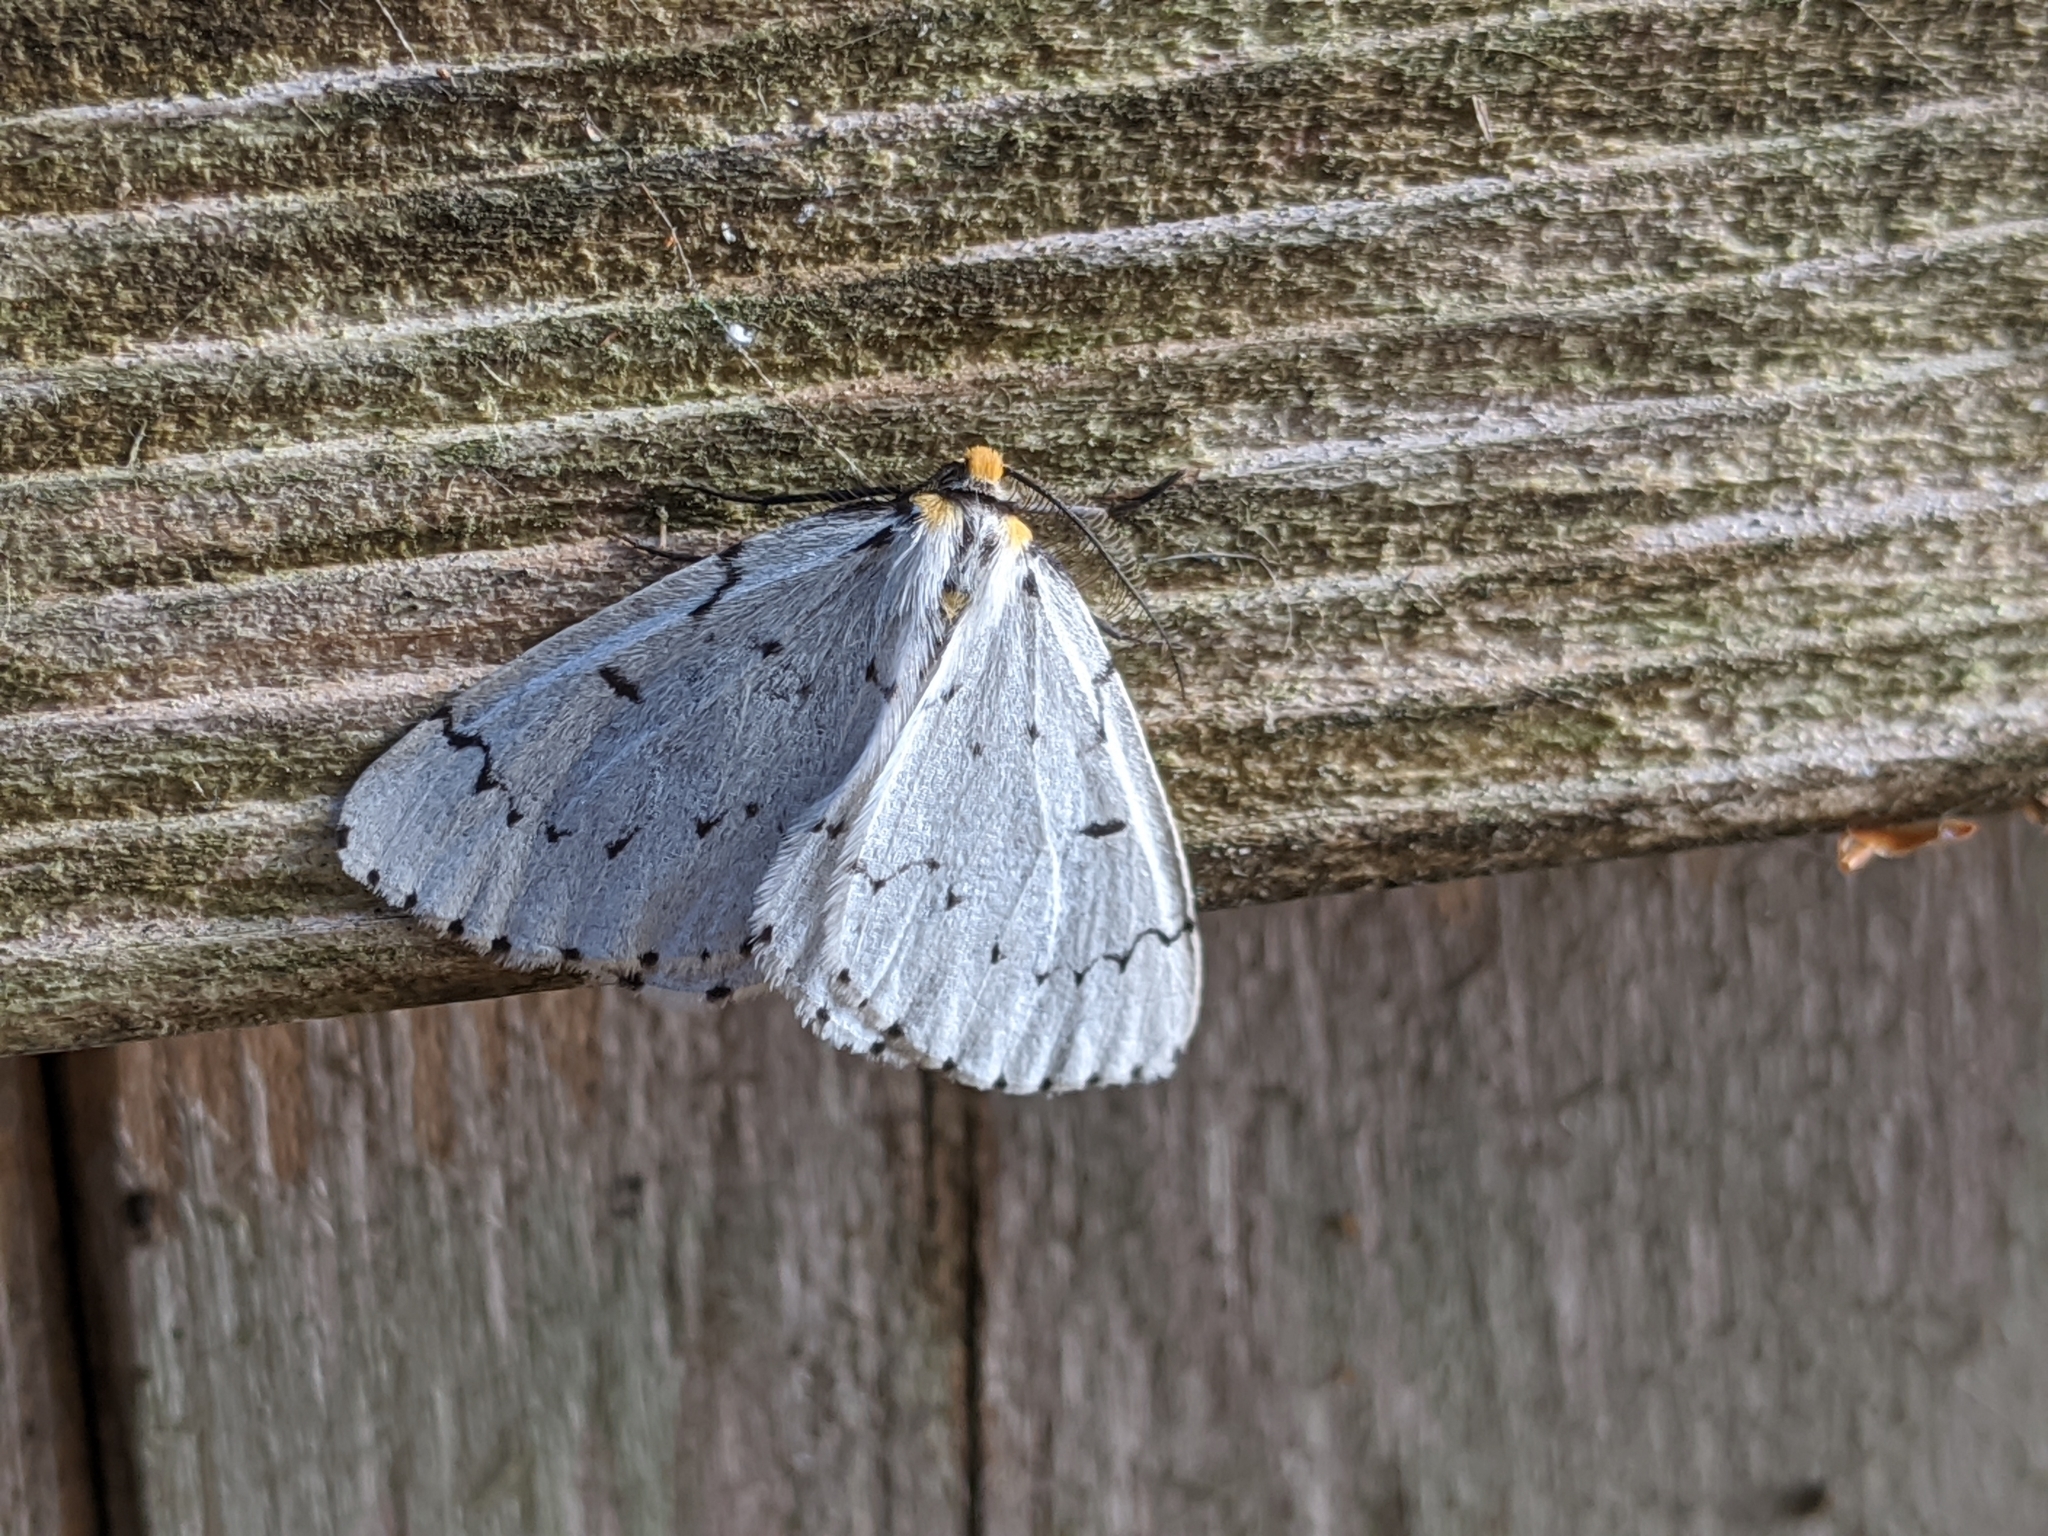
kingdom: Animalia
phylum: Arthropoda
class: Insecta
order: Lepidoptera
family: Geometridae
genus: Cingilia
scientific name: Cingilia catenaria
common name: Chain-dotted geometer
